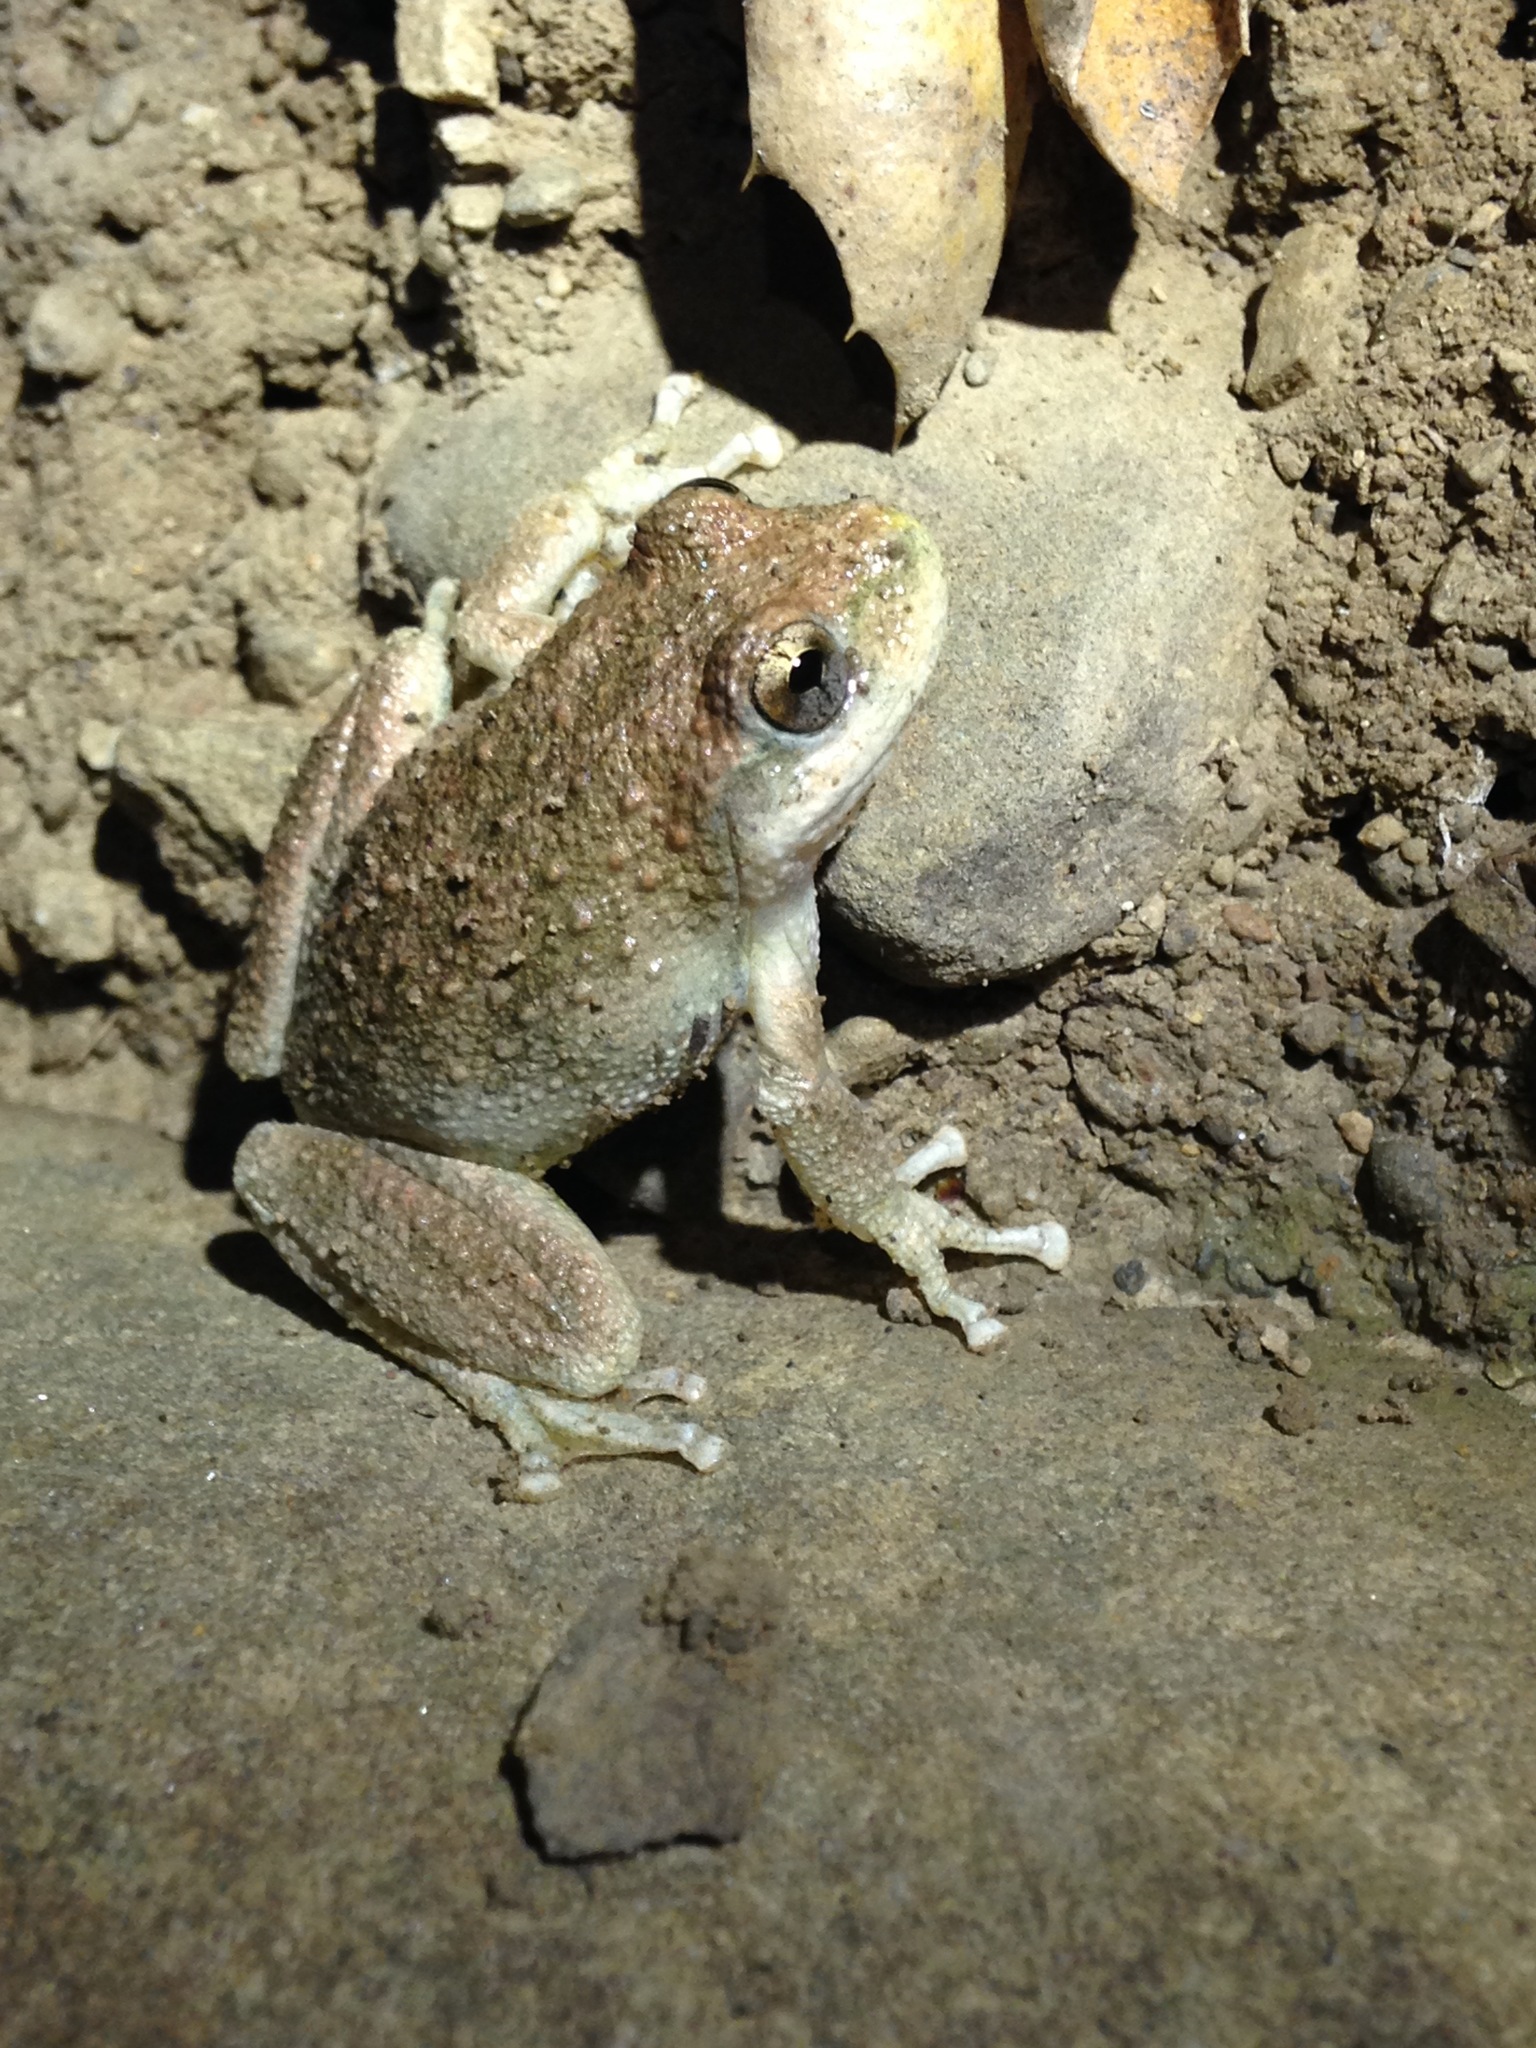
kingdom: Animalia
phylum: Chordata
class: Amphibia
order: Anura
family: Hylidae
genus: Pseudacris
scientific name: Pseudacris cadaverina
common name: California chorus frog
